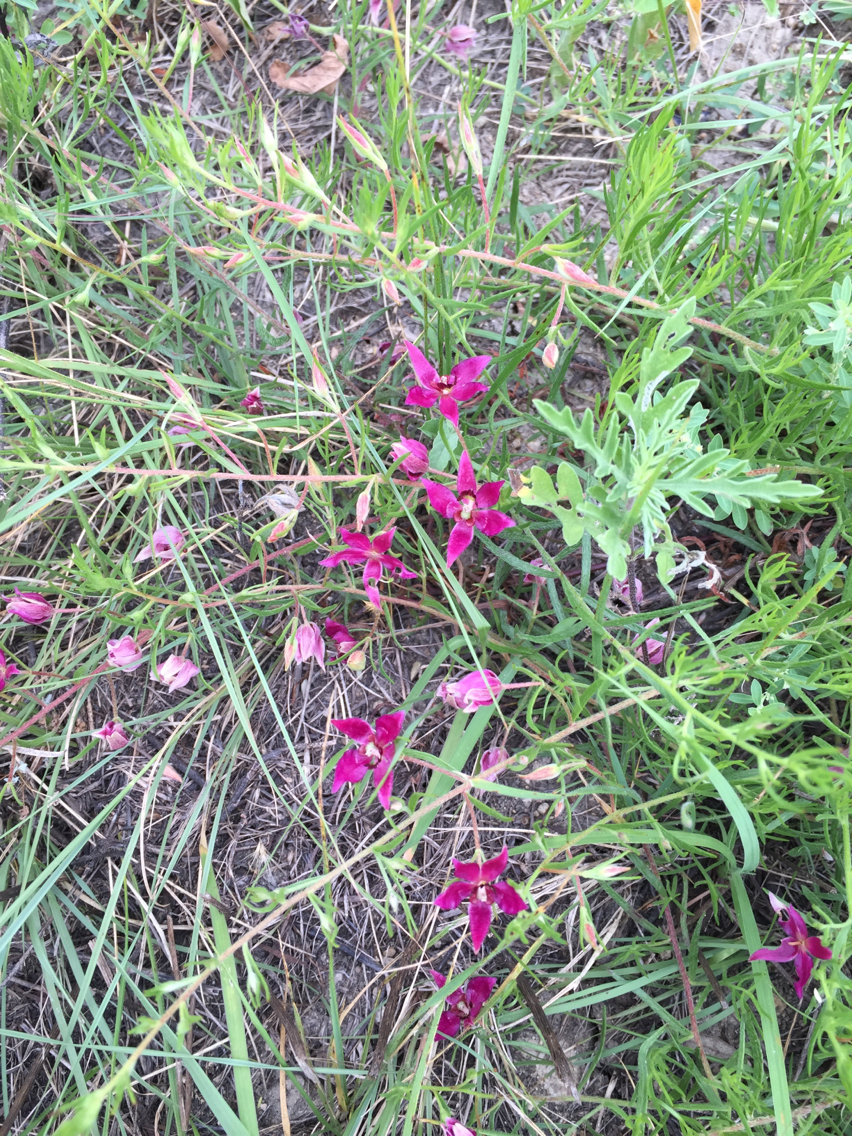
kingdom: Plantae
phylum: Tracheophyta
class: Magnoliopsida
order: Zygophyllales
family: Krameriaceae
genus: Krameria
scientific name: Krameria lanceolata
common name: Ratany
